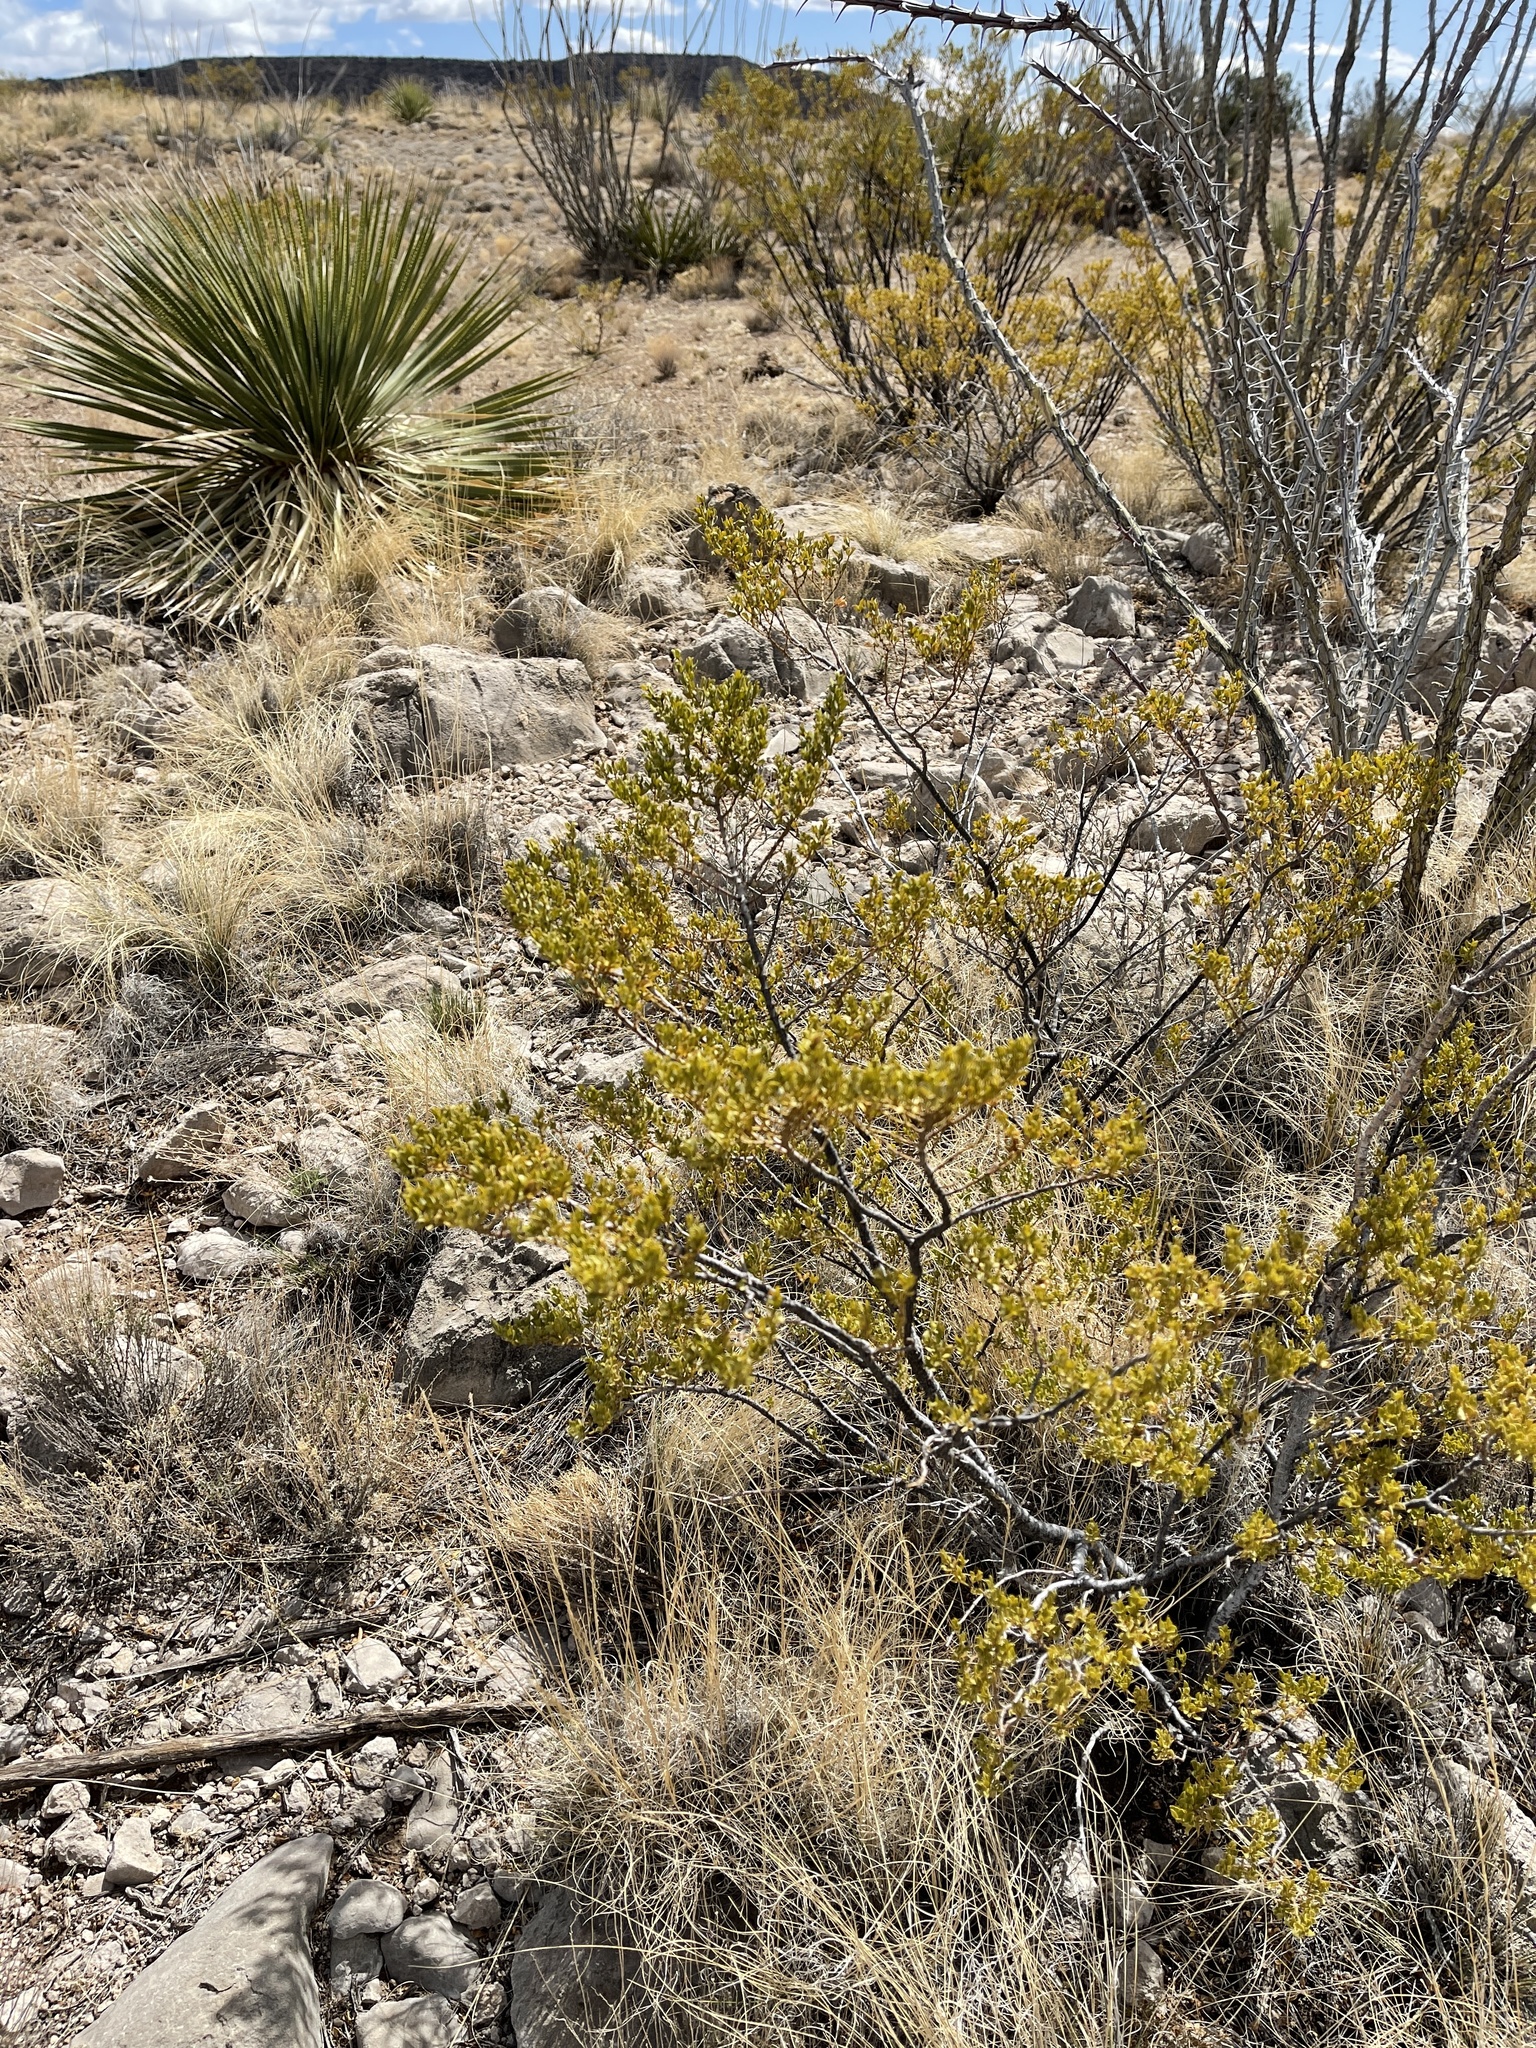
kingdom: Plantae
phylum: Tracheophyta
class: Magnoliopsida
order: Zygophyllales
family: Zygophyllaceae
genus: Larrea
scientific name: Larrea tridentata
